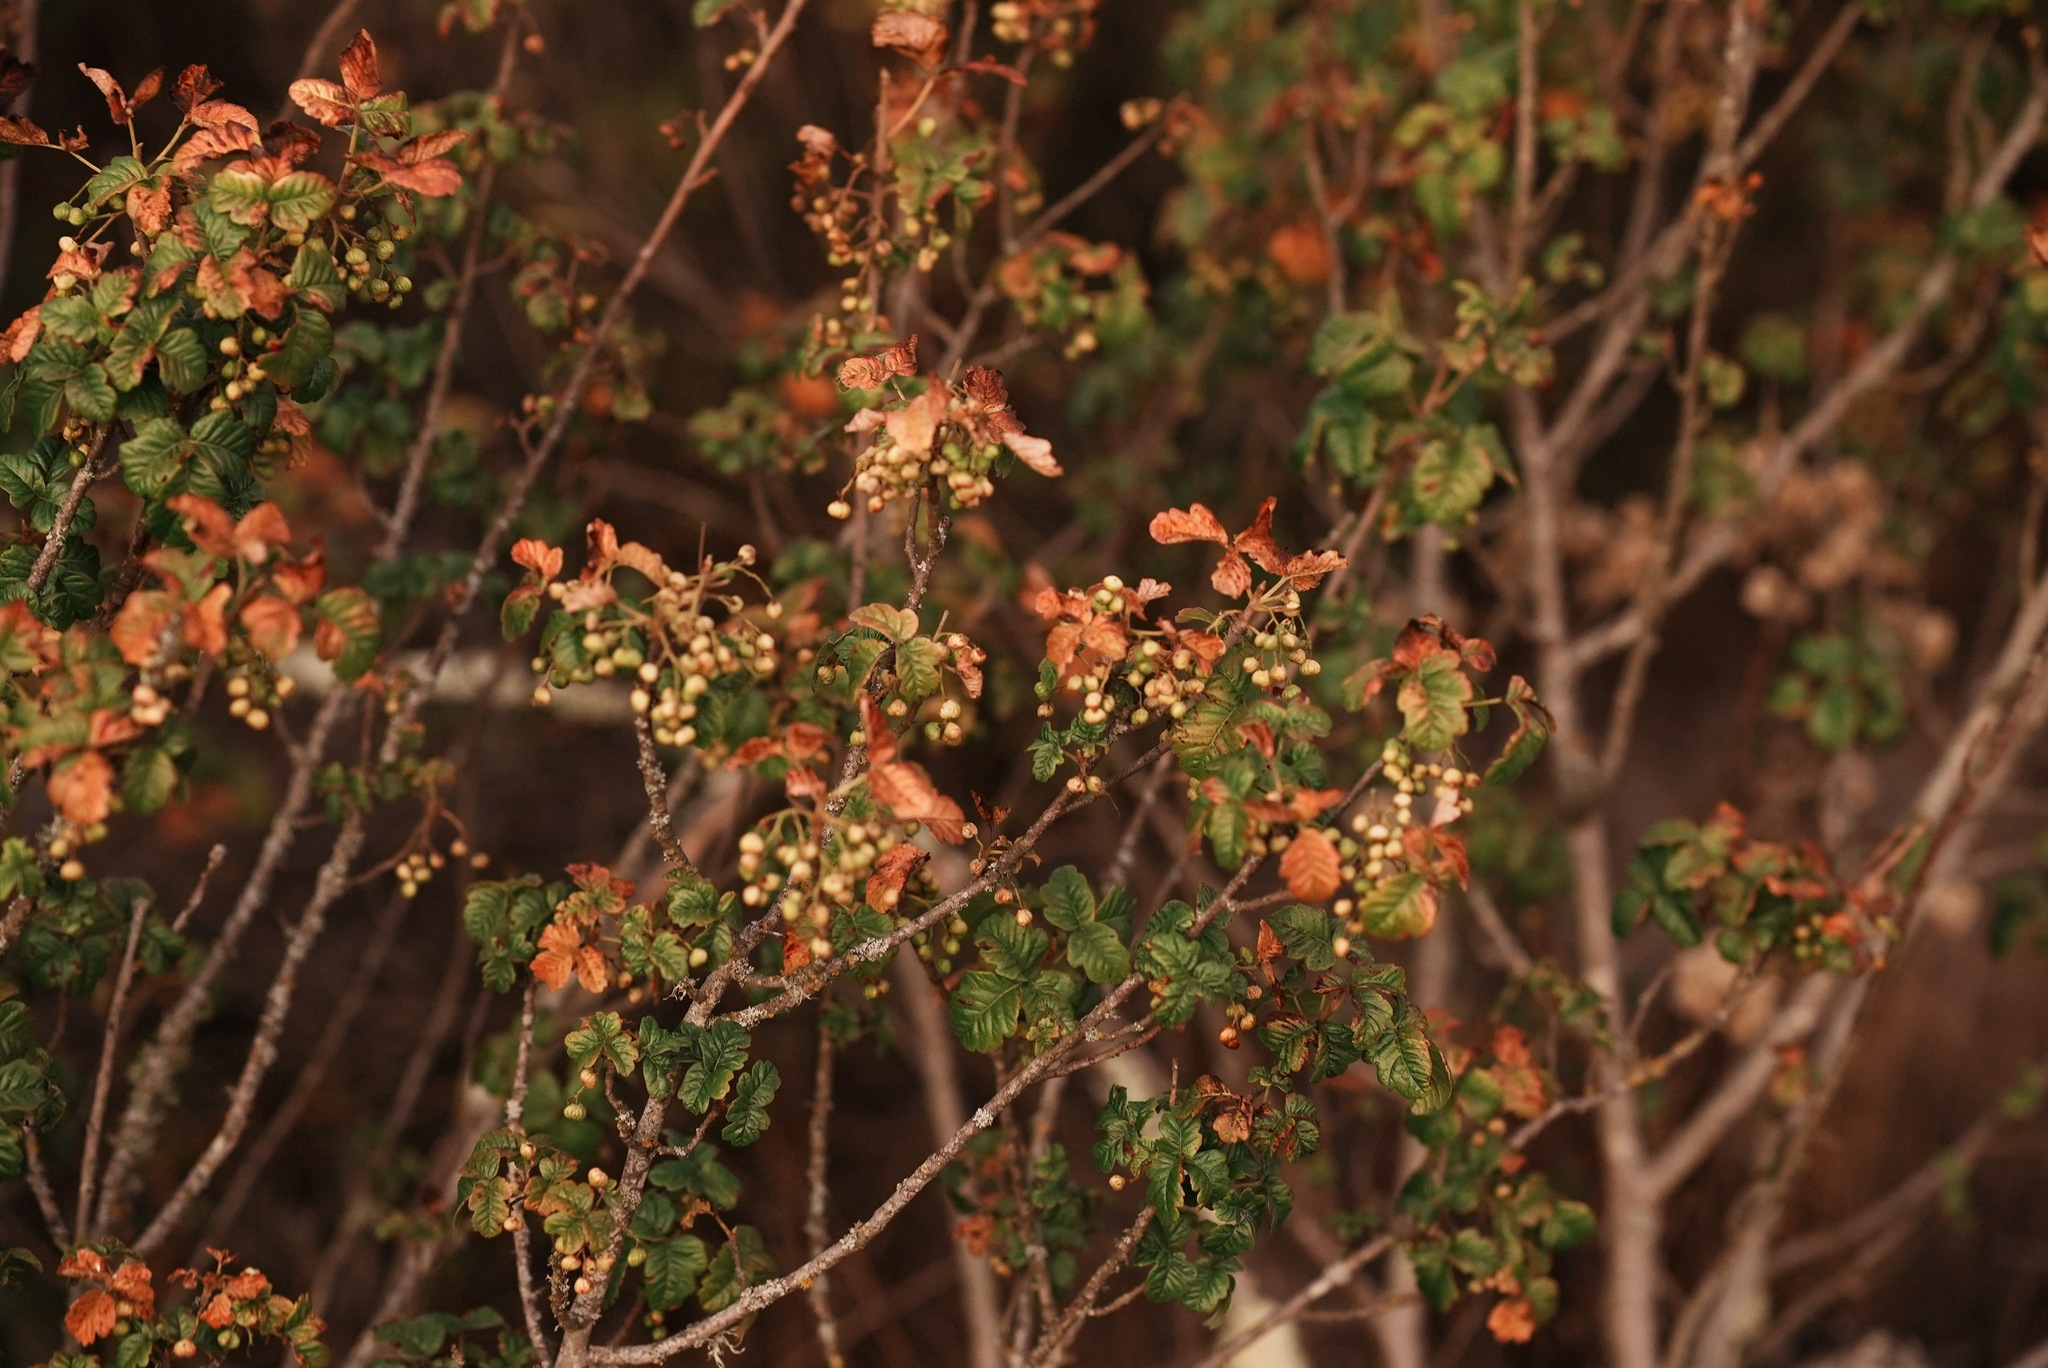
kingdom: Plantae
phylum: Tracheophyta
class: Magnoliopsida
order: Sapindales
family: Anacardiaceae
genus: Toxicodendron
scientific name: Toxicodendron diversilobum
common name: Pacific poison-oak
